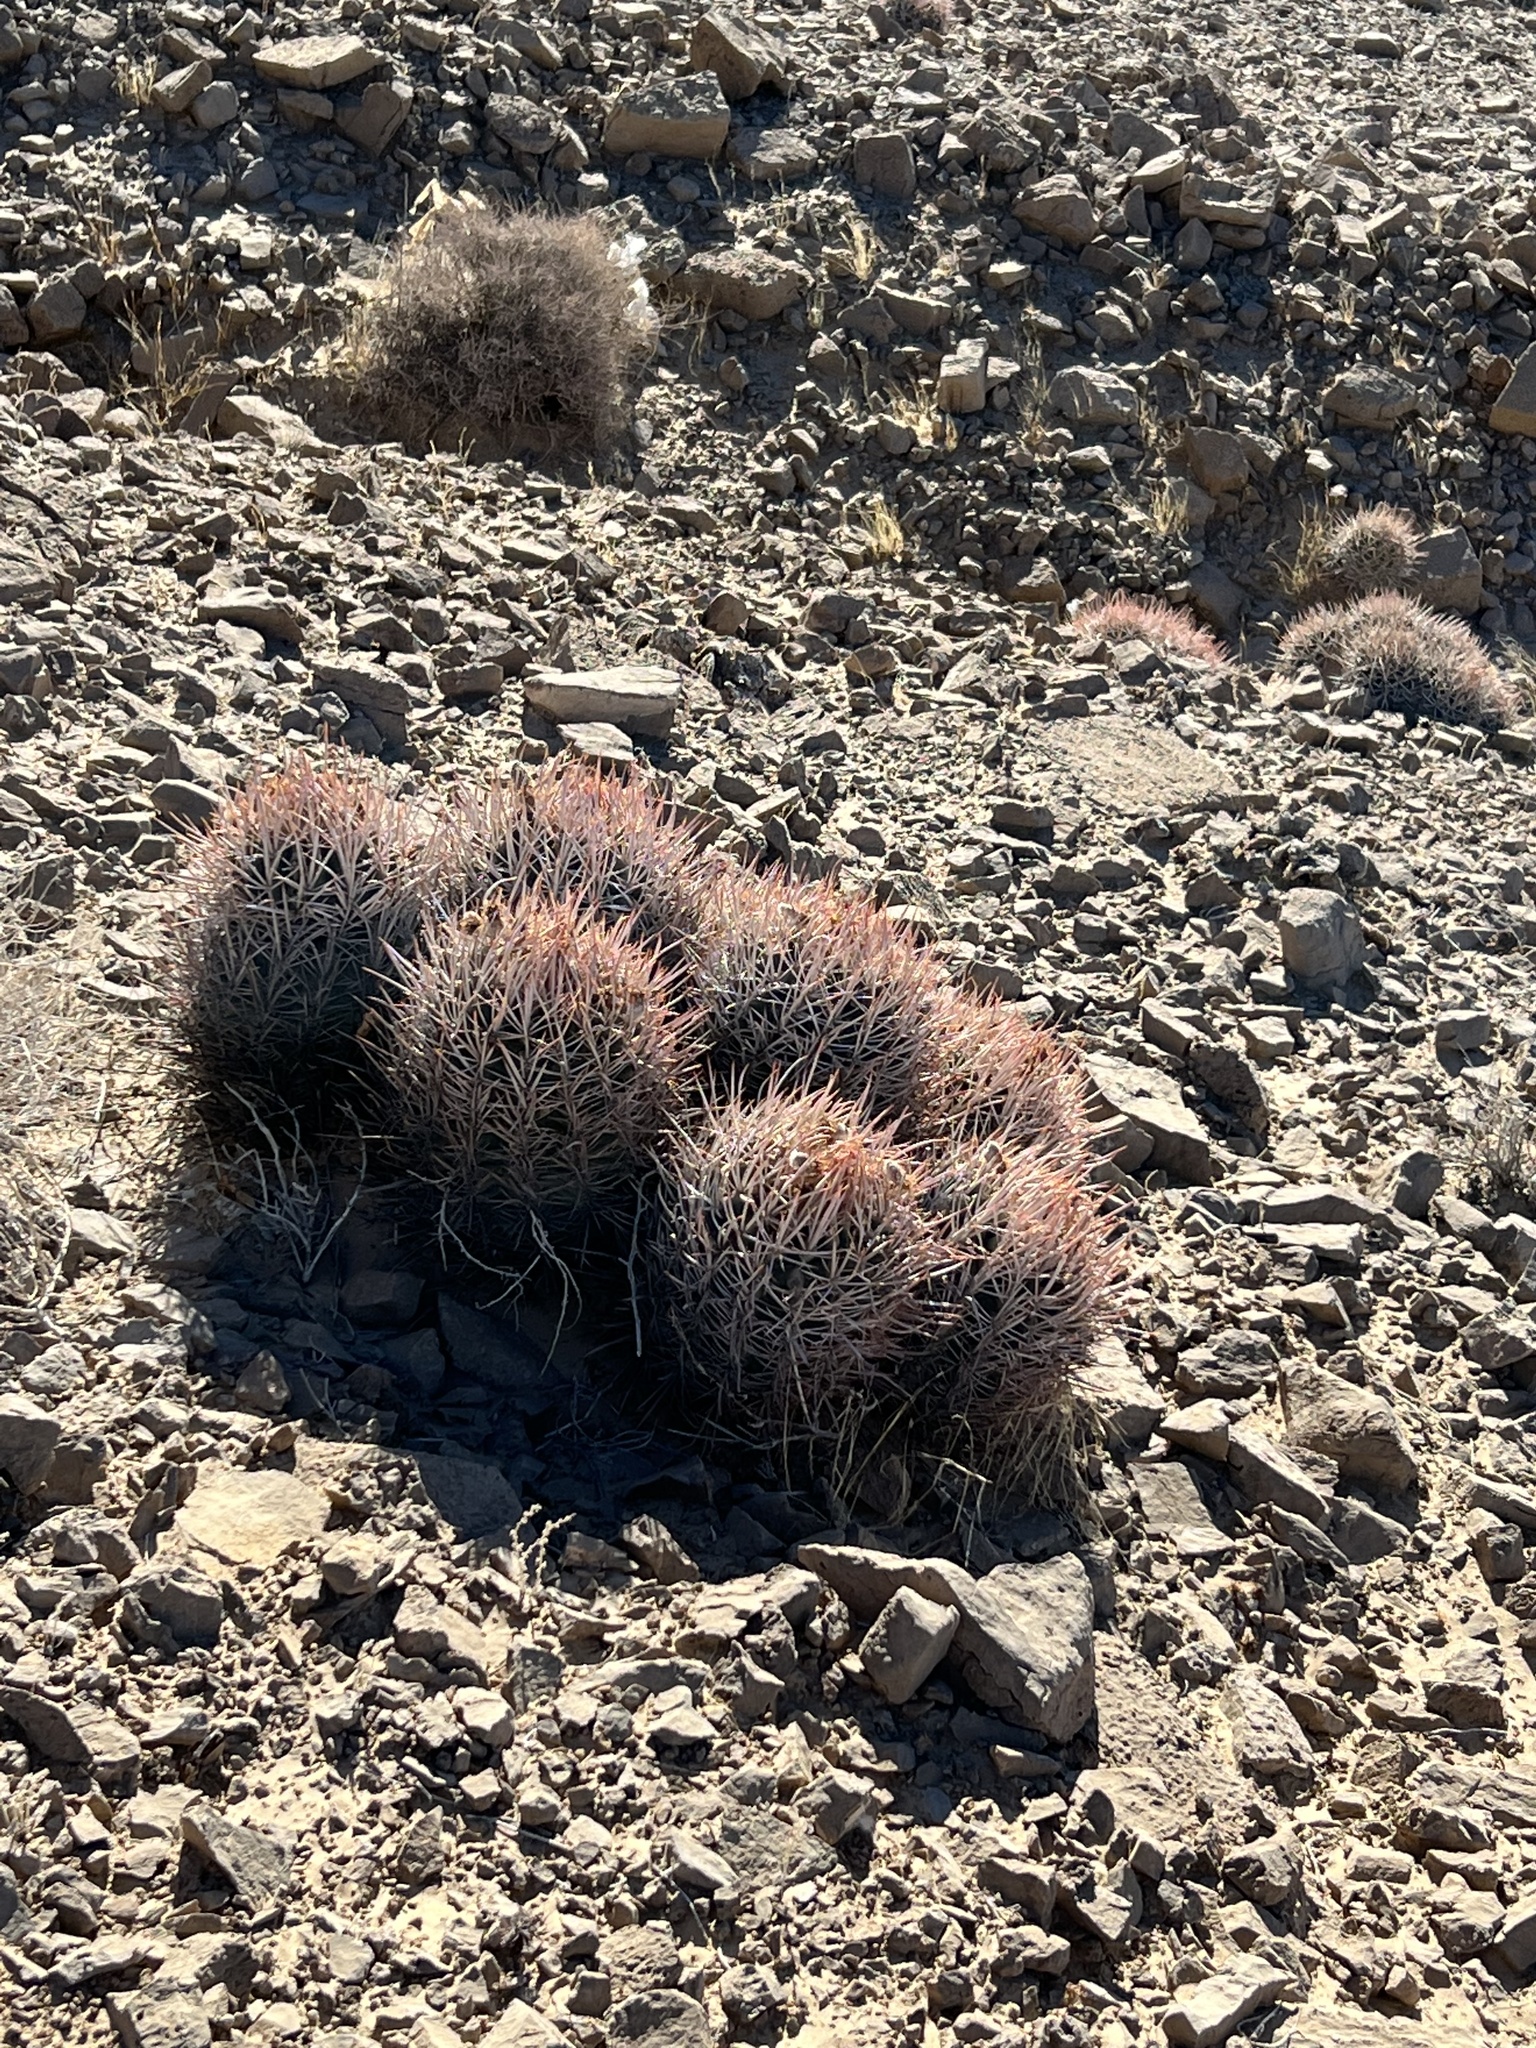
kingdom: Plantae
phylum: Tracheophyta
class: Magnoliopsida
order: Caryophyllales
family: Cactaceae
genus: Echinocactus
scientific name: Echinocactus polycephalus
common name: Cottontop cactus
